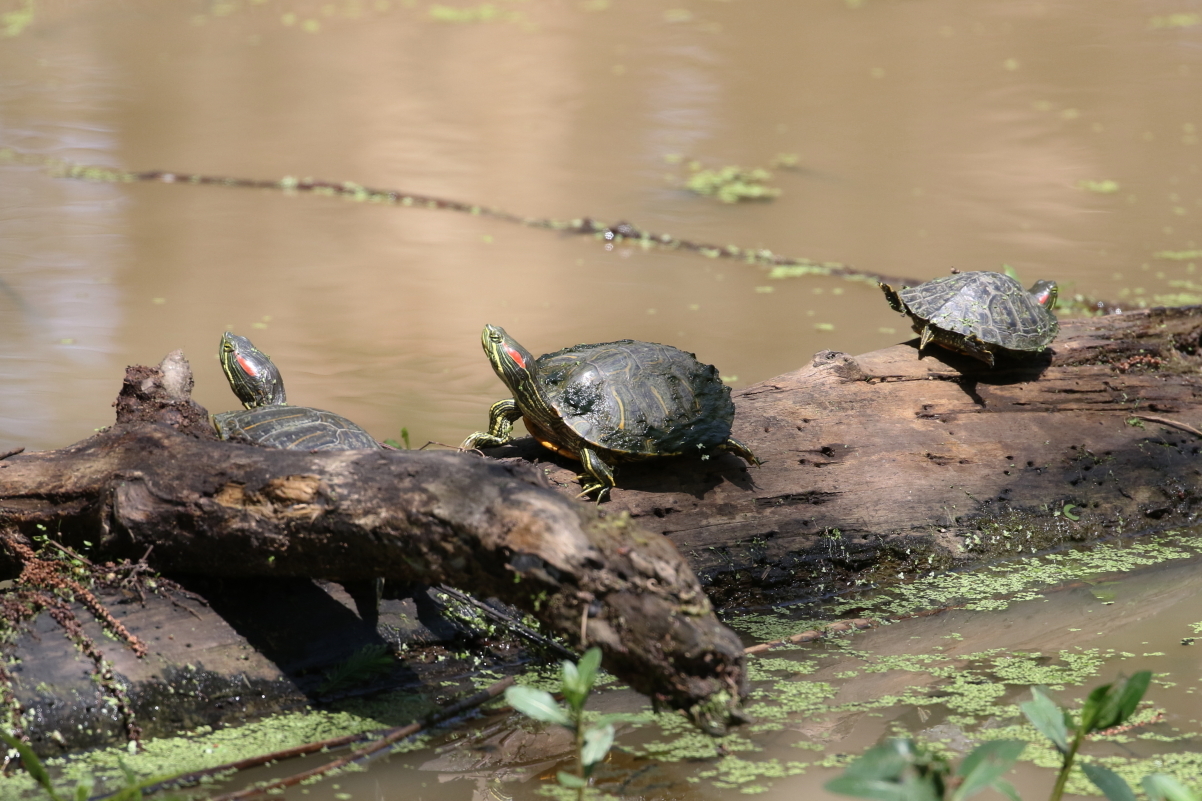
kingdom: Animalia
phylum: Chordata
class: Testudines
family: Emydidae
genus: Trachemys
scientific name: Trachemys scripta
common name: Slider
